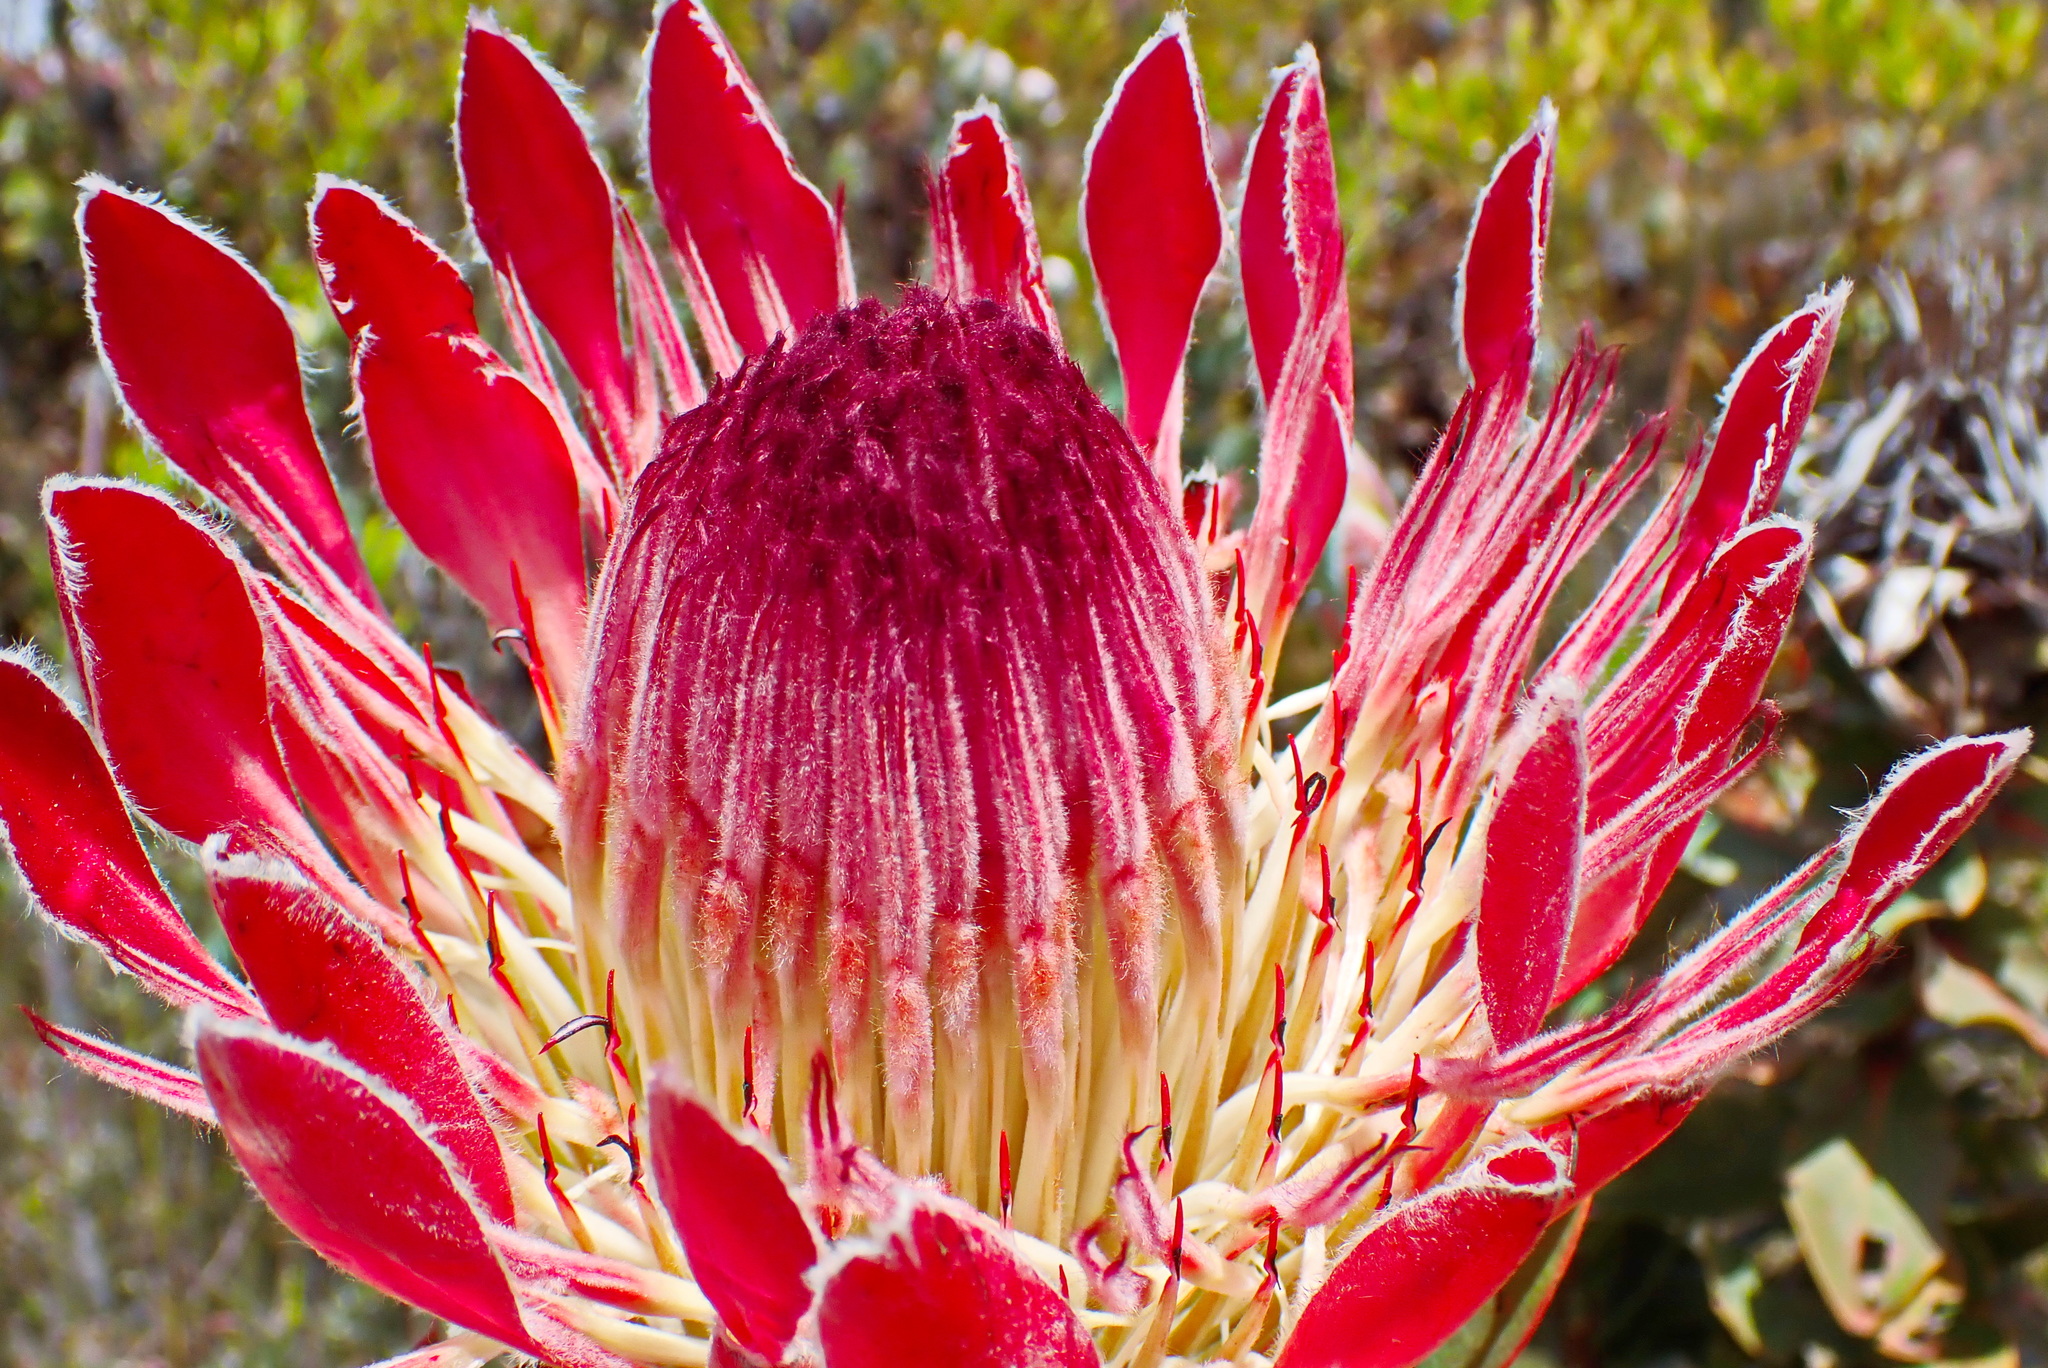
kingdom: Plantae
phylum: Tracheophyta
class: Magnoliopsida
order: Proteales
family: Proteaceae
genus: Protea
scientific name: Protea eximia
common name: Broad-leaved sugarbush
